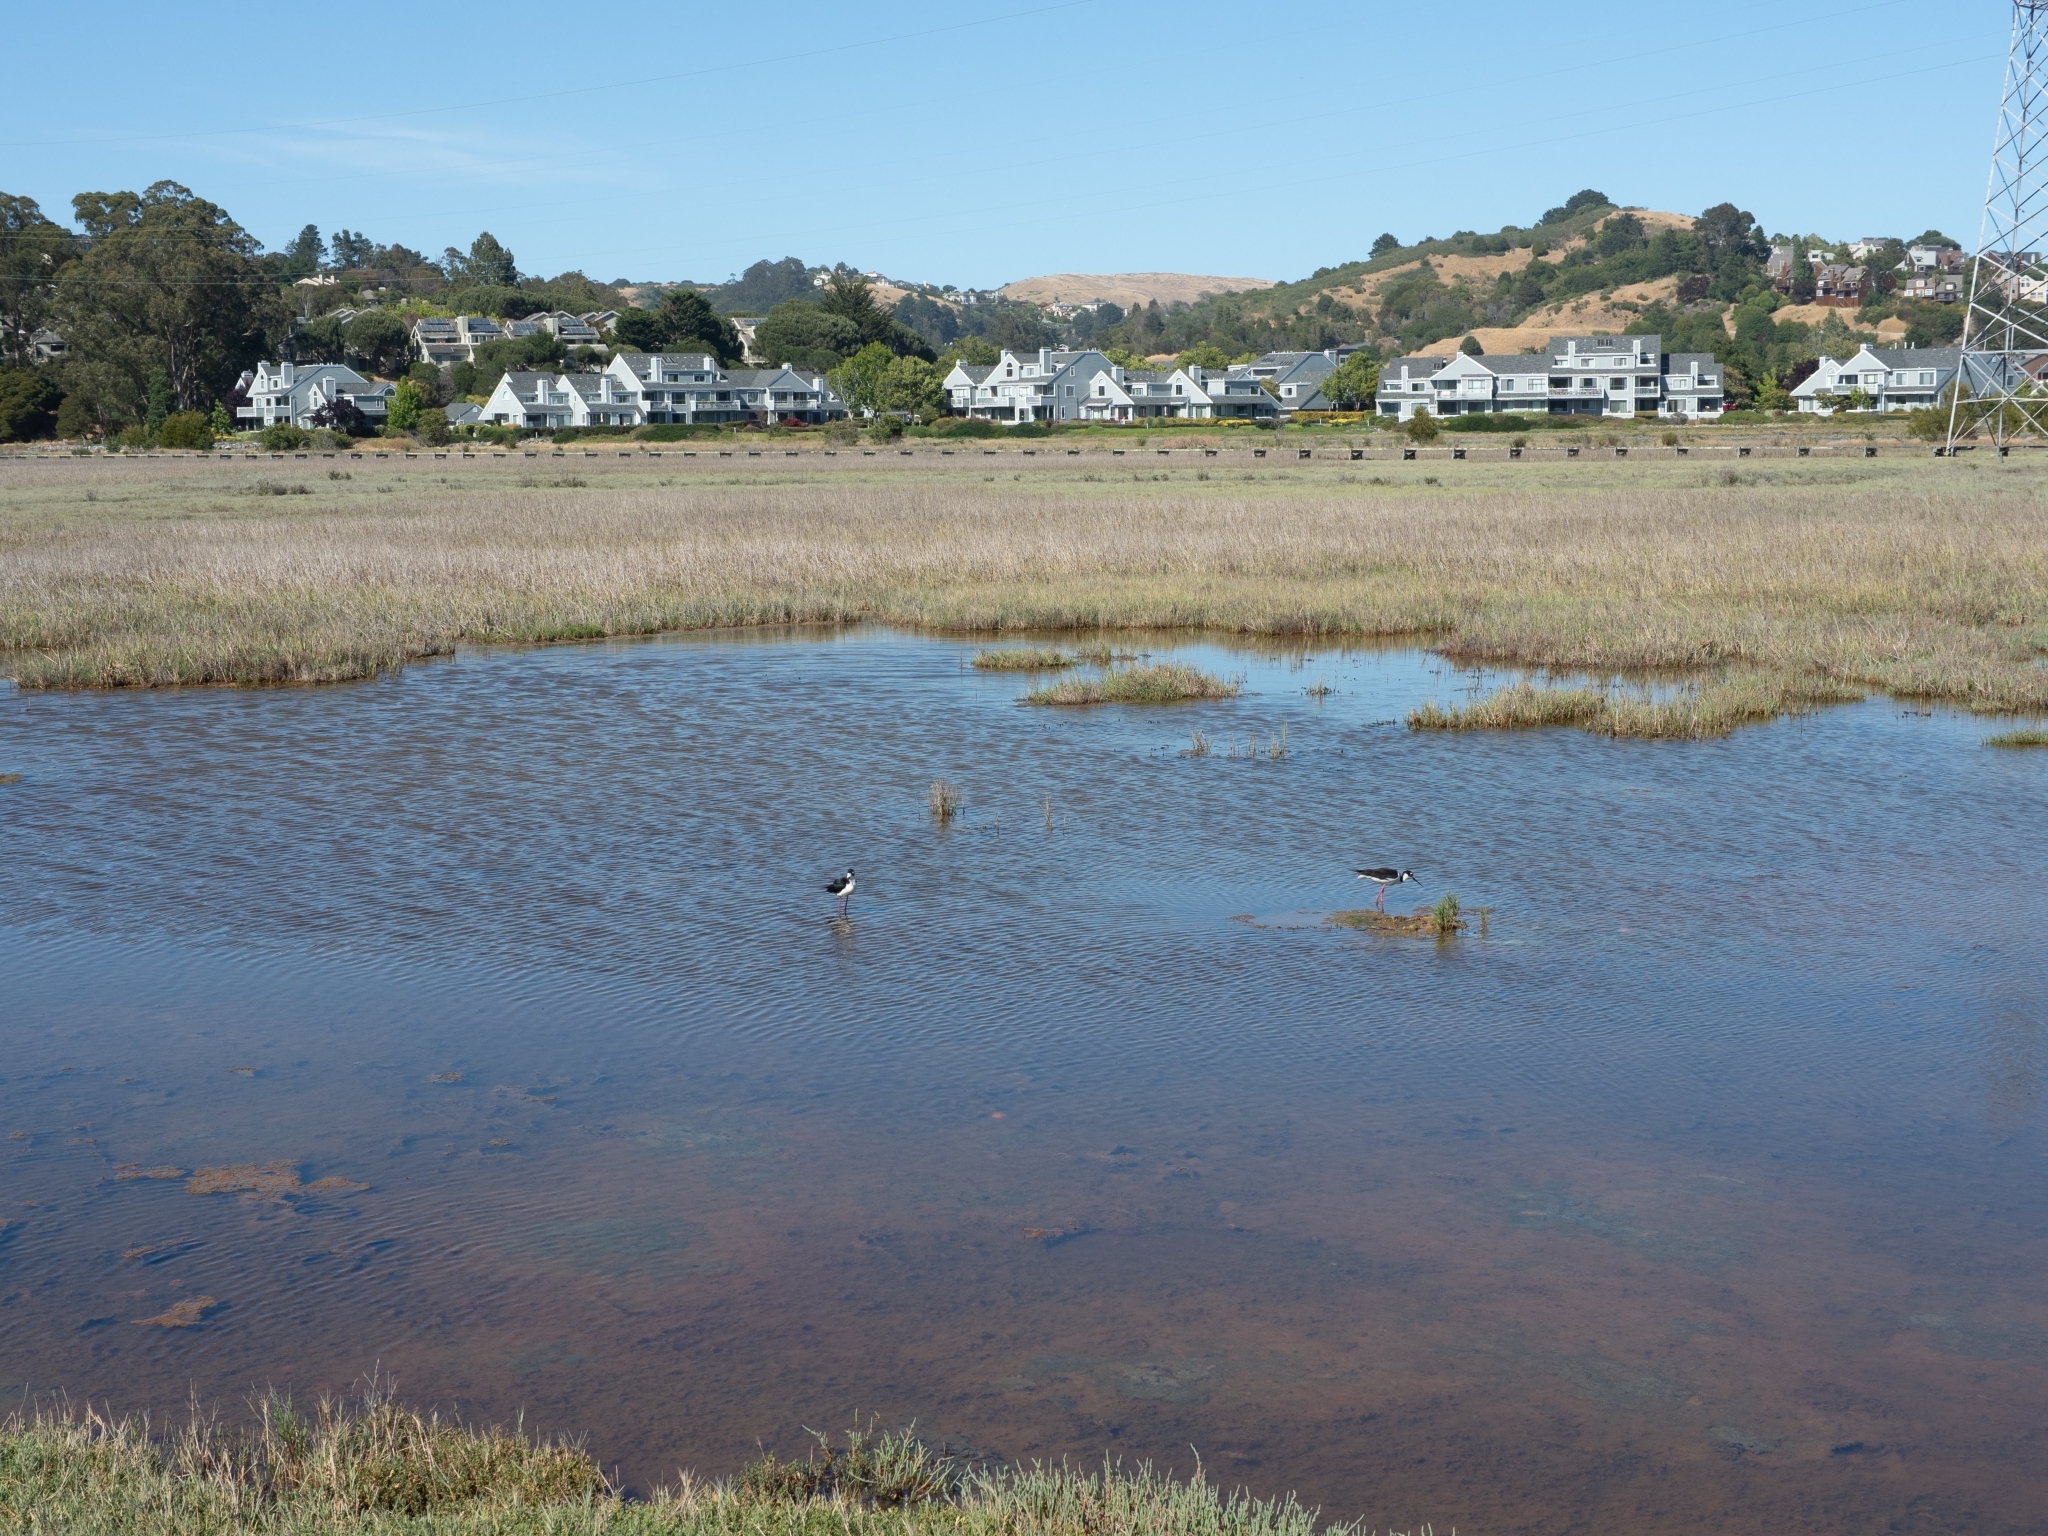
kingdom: Animalia
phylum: Chordata
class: Aves
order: Charadriiformes
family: Recurvirostridae
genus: Himantopus
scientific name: Himantopus mexicanus
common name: Black-necked stilt
